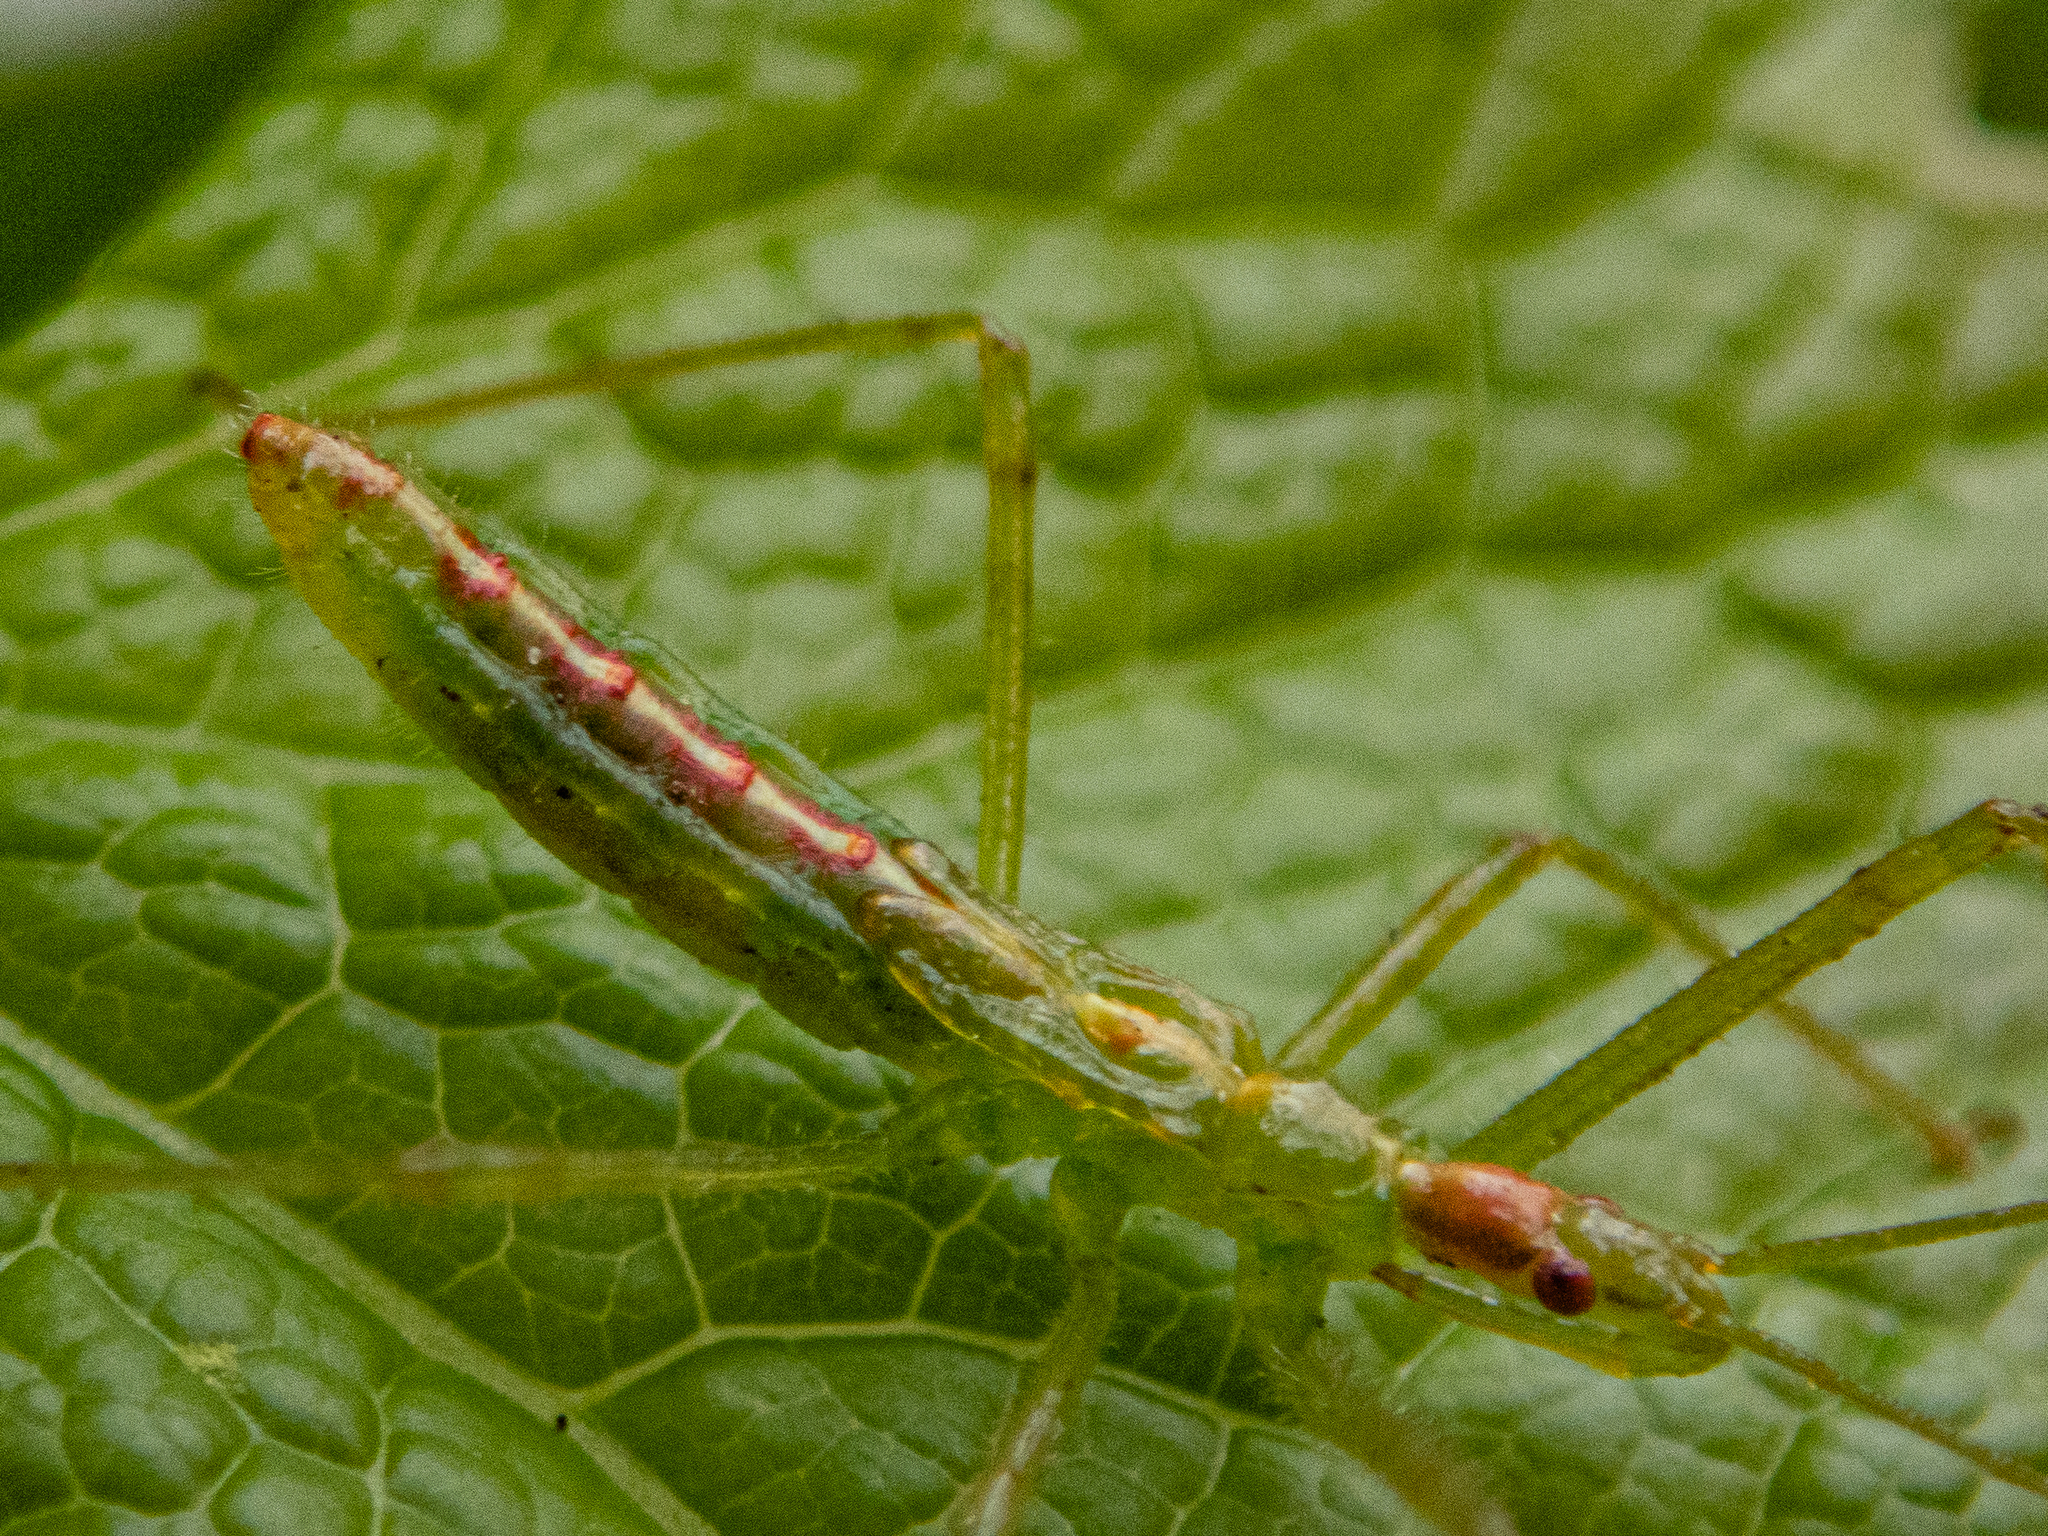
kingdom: Animalia
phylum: Arthropoda
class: Insecta
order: Hemiptera
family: Reduviidae
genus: Zelus
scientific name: Zelus luridus
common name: Pale green assassin bug
